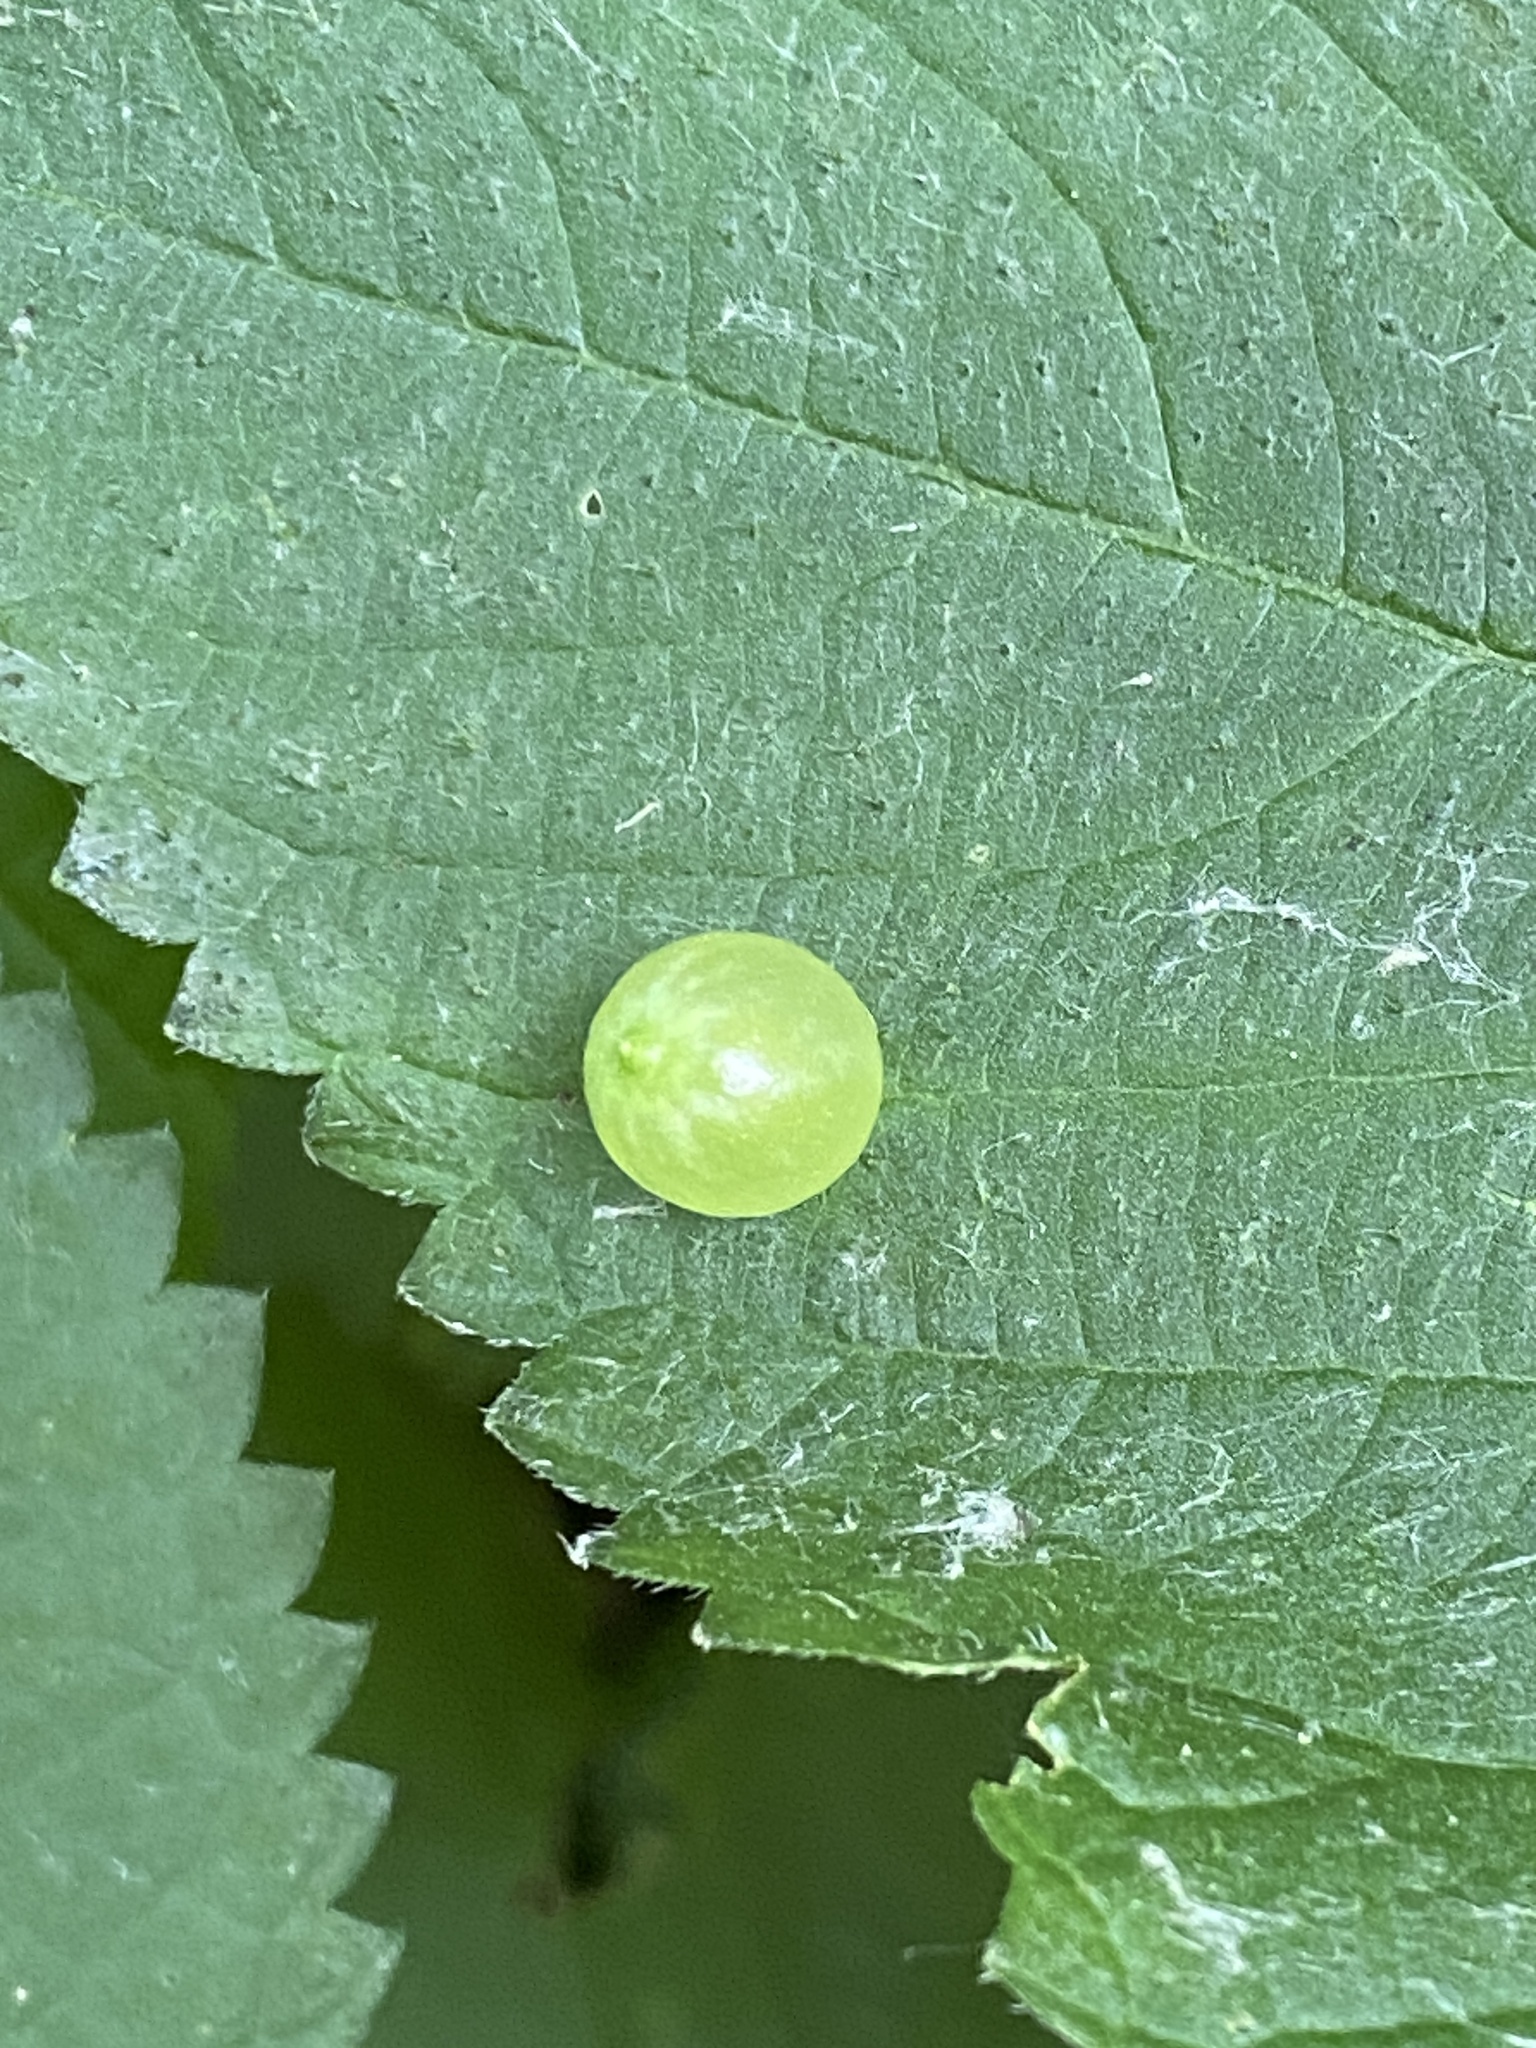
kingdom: Animalia
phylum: Arthropoda
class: Insecta
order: Diptera
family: Cecidomyiidae
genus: Dasineura
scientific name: Dasineura investita
